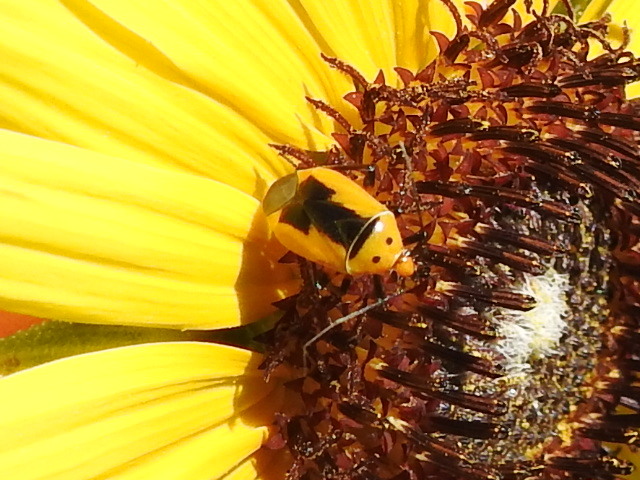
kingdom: Animalia
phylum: Arthropoda
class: Insecta
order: Hemiptera
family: Miridae
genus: Neocapsus
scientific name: Neocapsus fasciativentris
